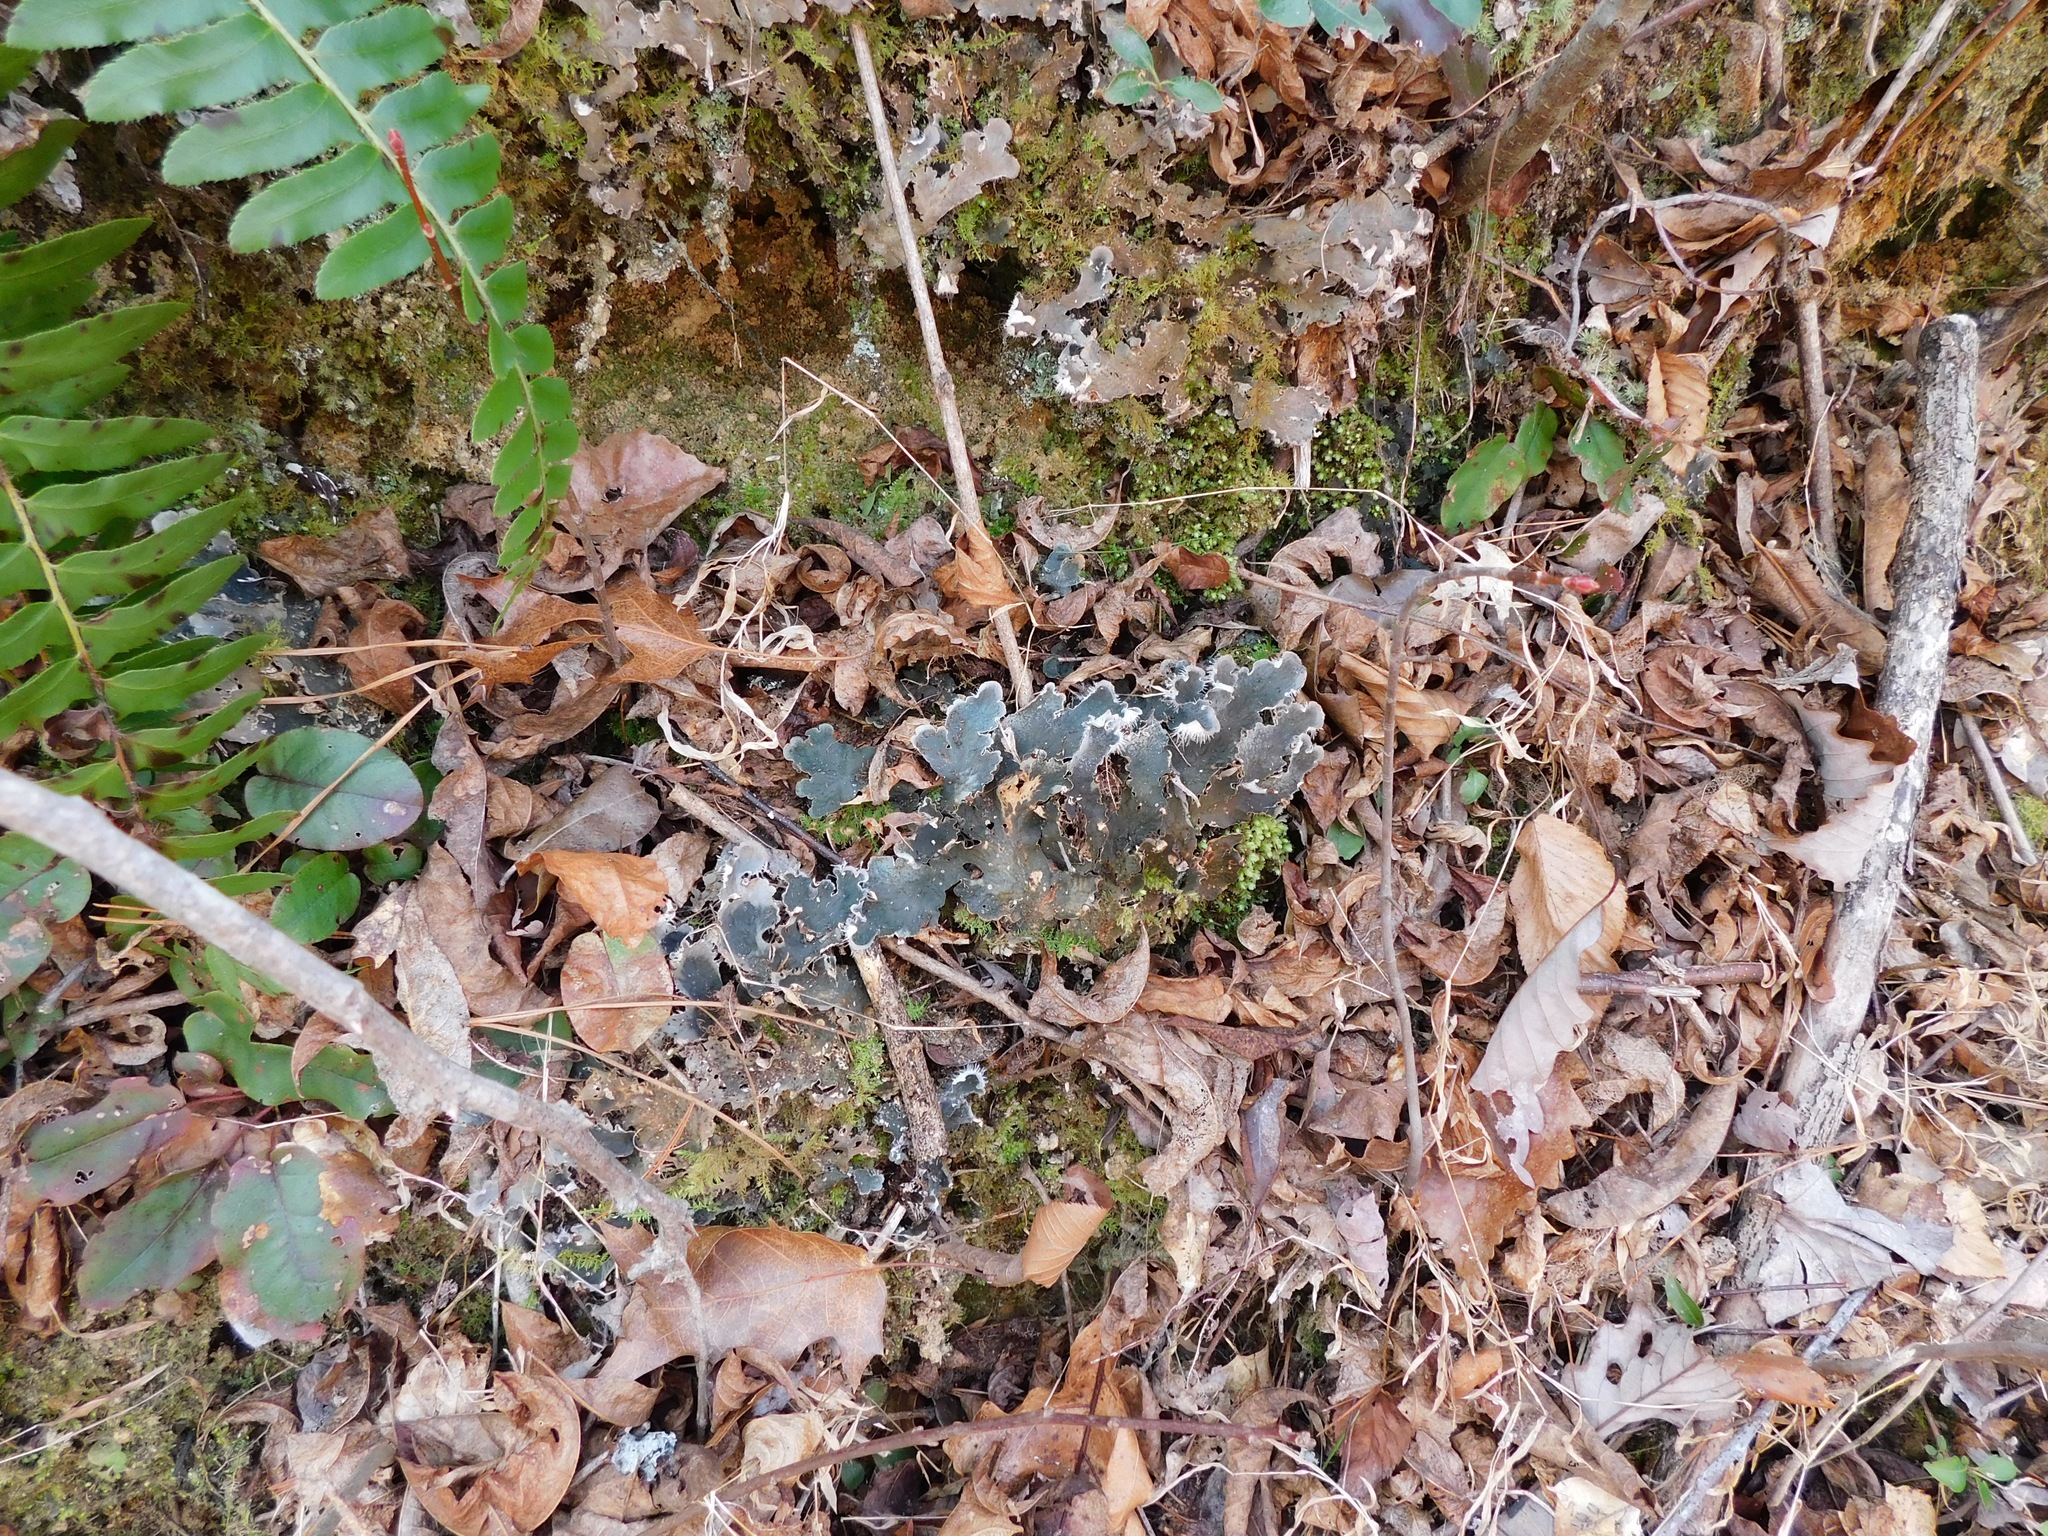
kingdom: Fungi
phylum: Ascomycota
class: Lecanoromycetes
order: Peltigerales
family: Peltigeraceae
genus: Peltigera
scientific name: Peltigera praetextata
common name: Scaly dog-lichen
